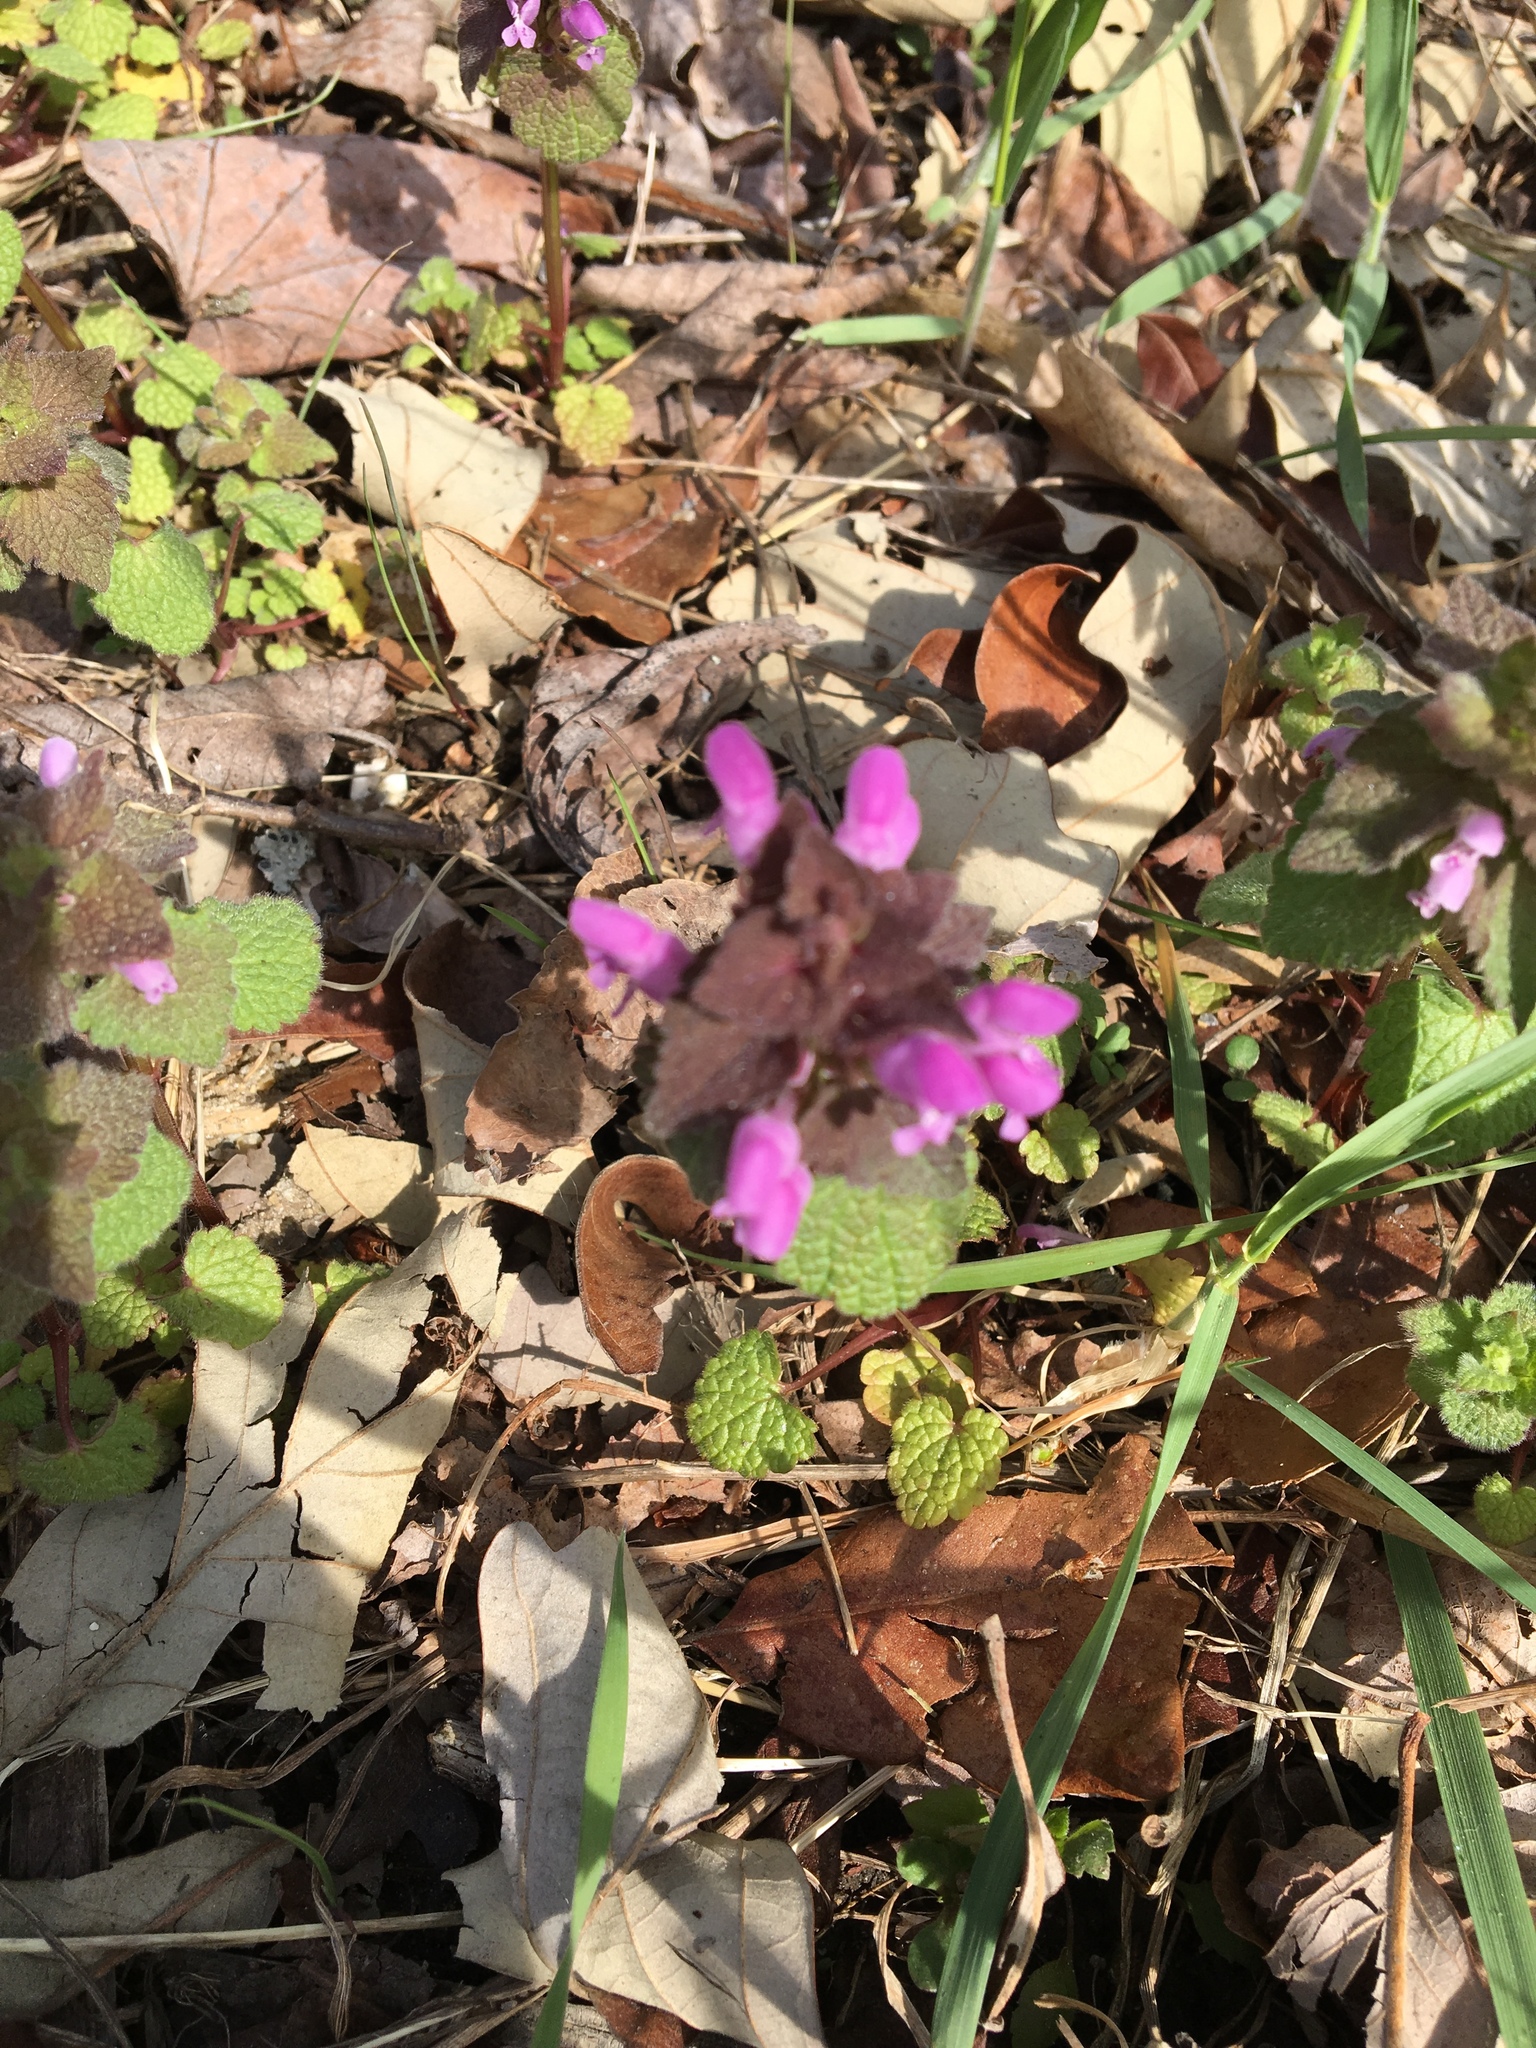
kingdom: Plantae
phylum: Tracheophyta
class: Magnoliopsida
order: Lamiales
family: Lamiaceae
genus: Lamium
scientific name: Lamium purpureum
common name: Red dead-nettle
